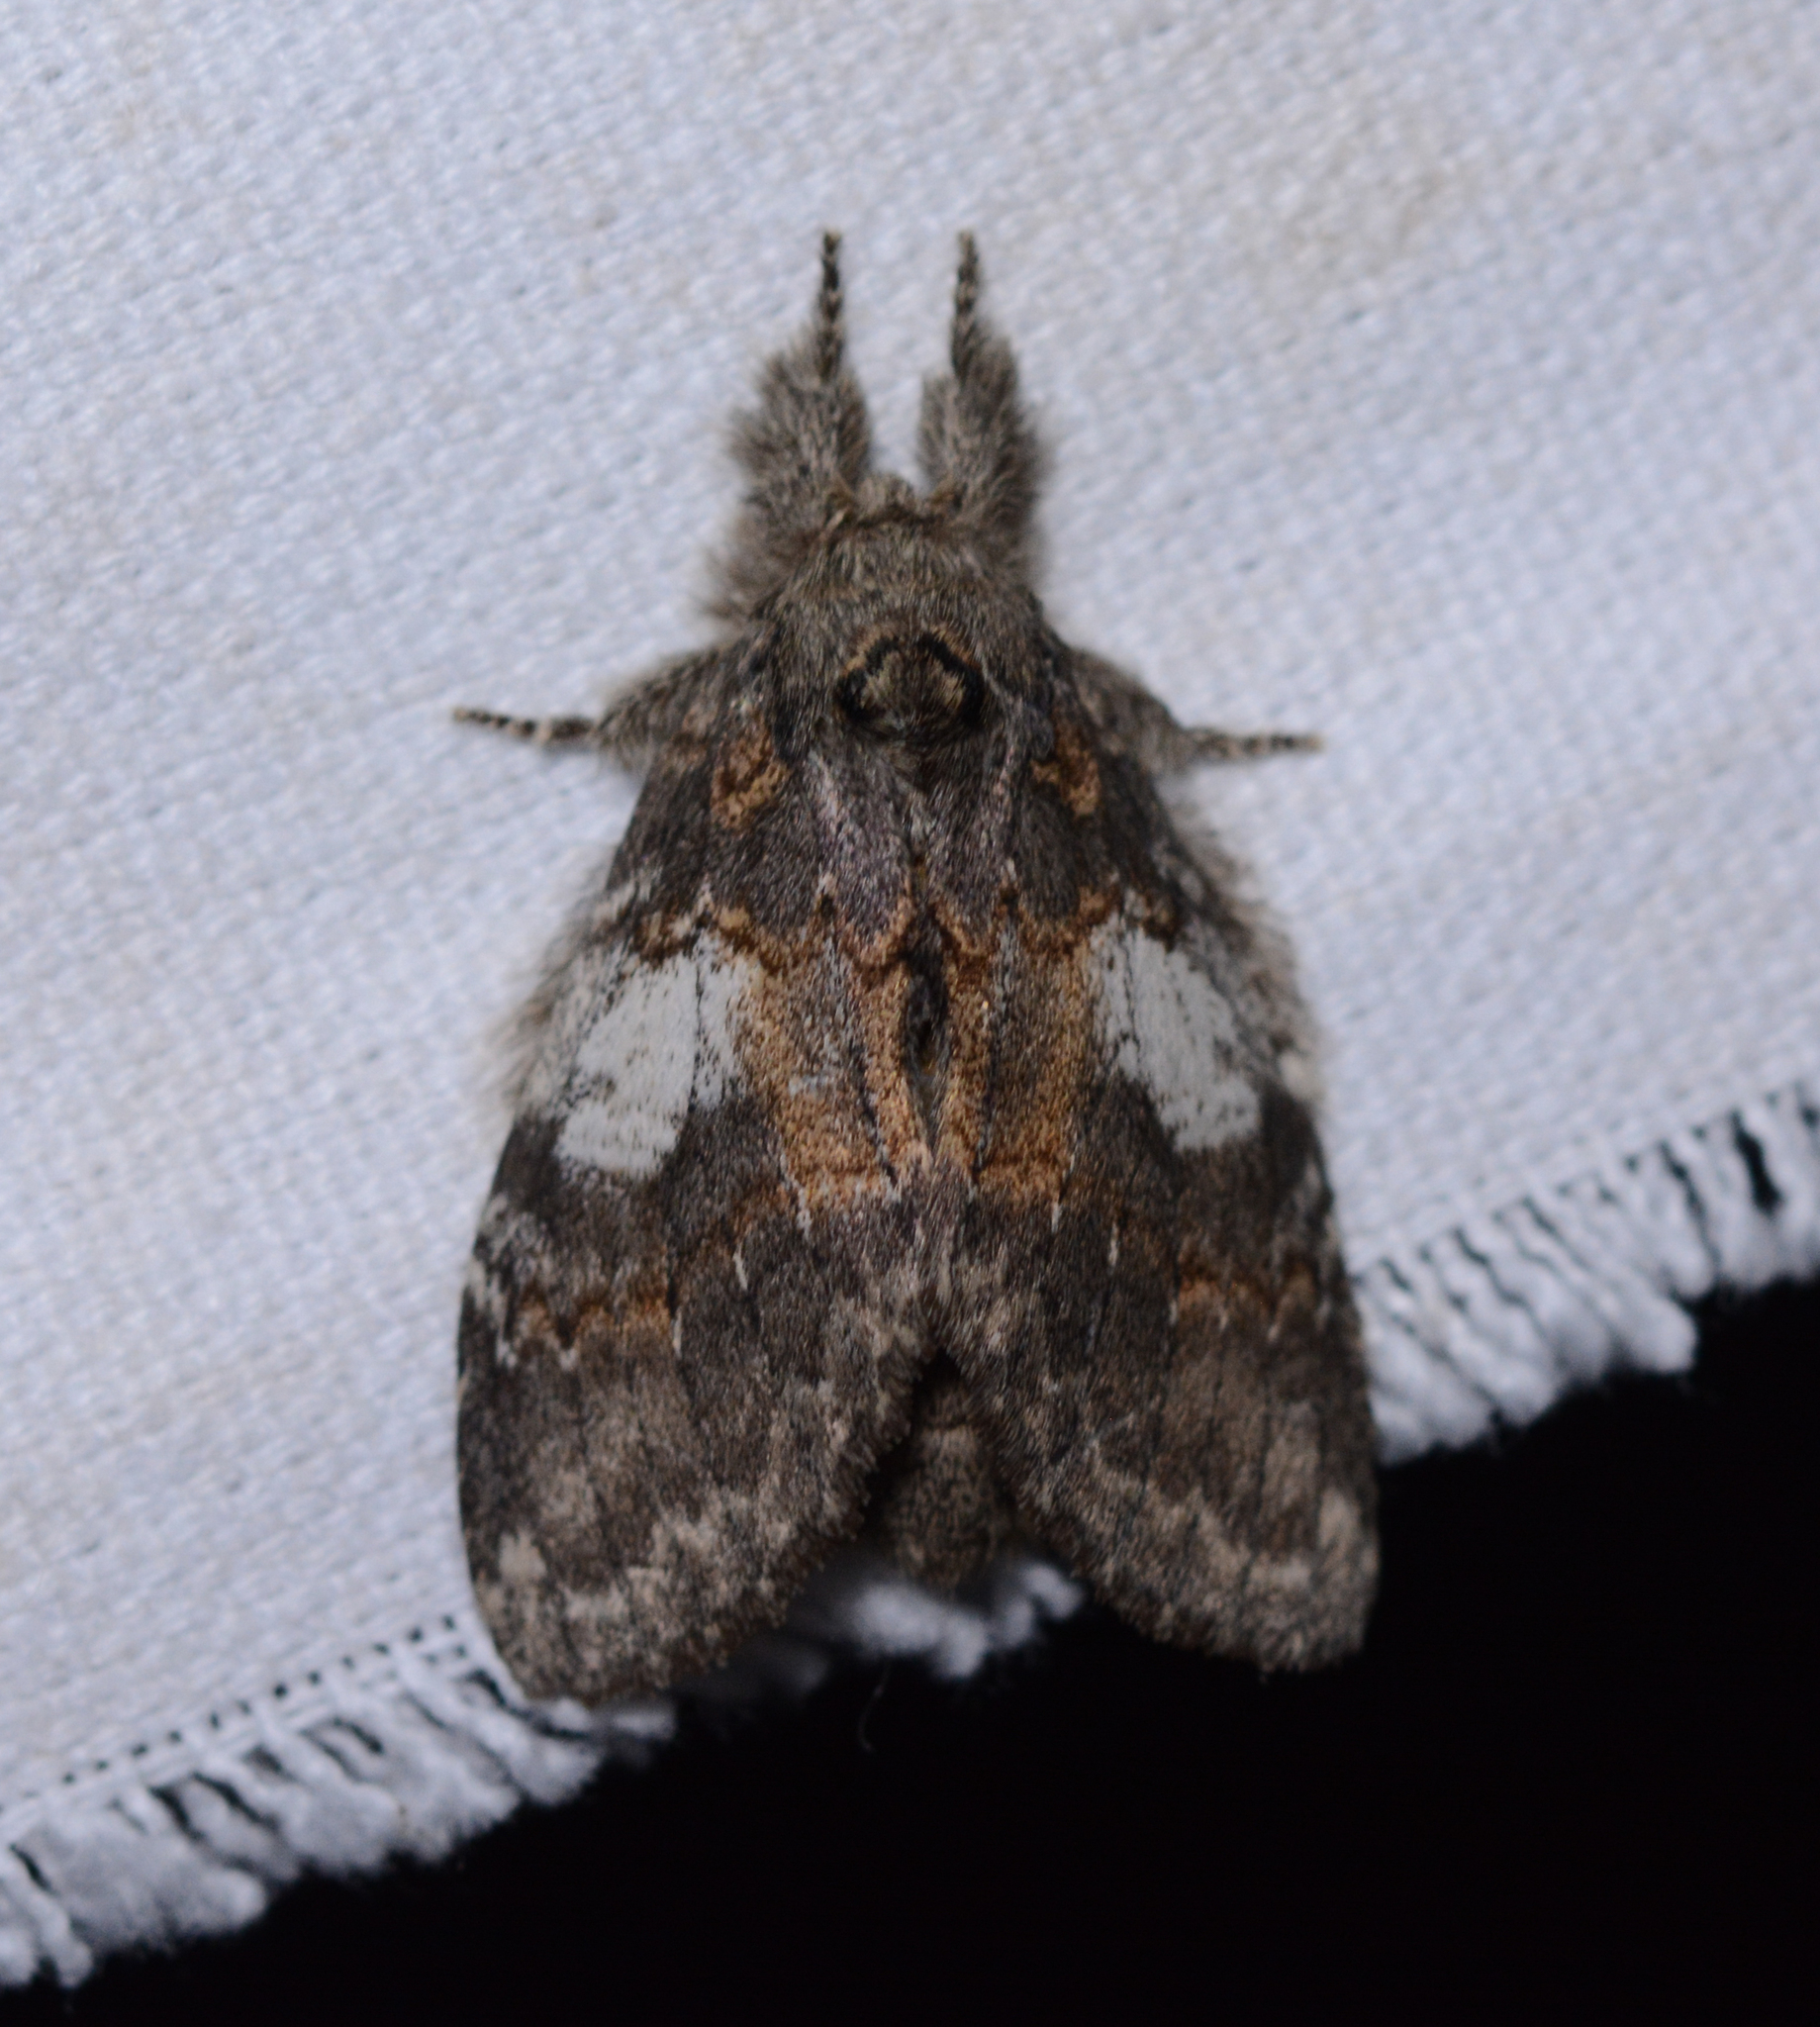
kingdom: Animalia
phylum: Arthropoda
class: Insecta
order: Lepidoptera
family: Notodontidae
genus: Peridea
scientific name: Peridea angulosa
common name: Angulose prominent
